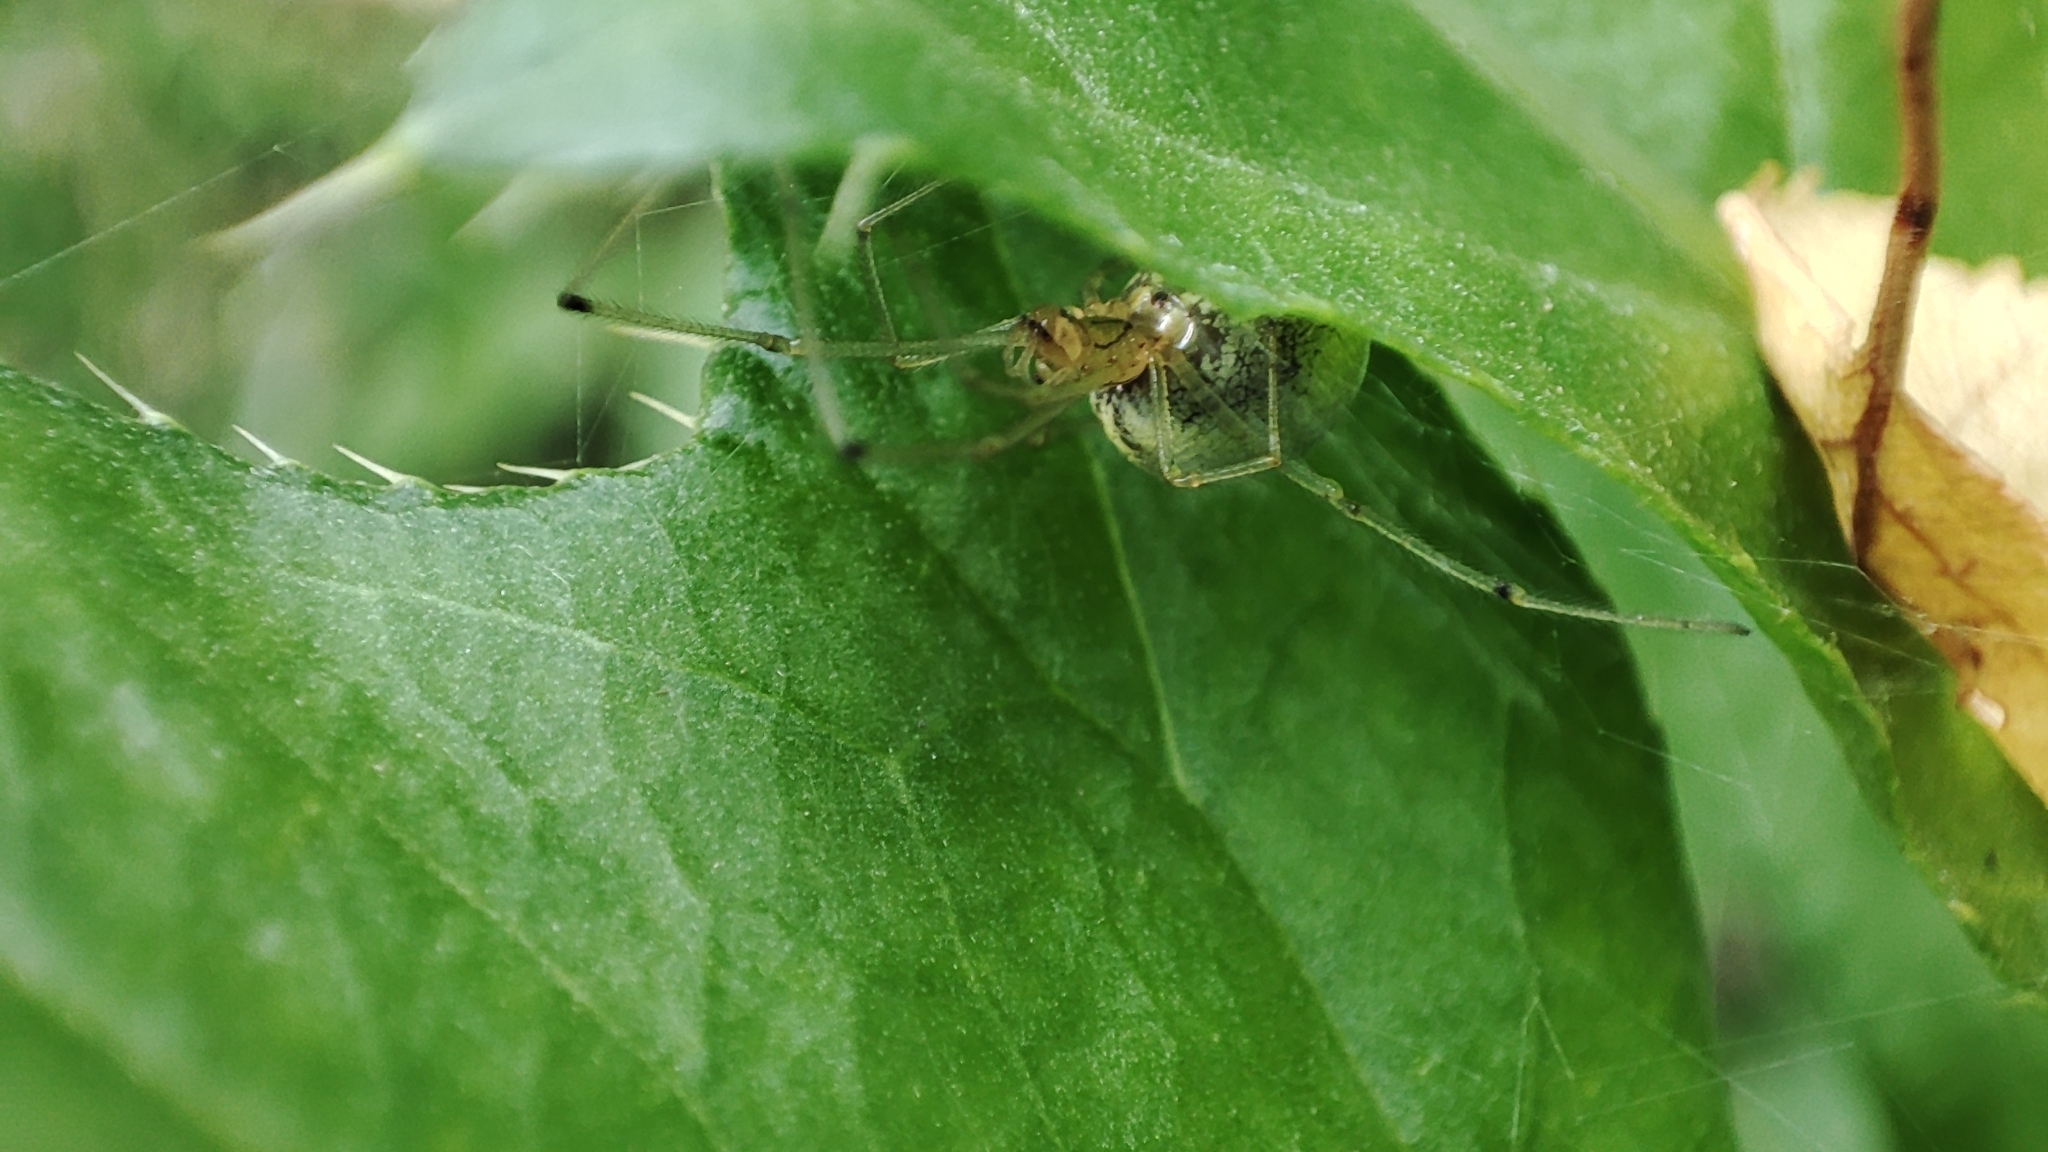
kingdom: Animalia
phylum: Arthropoda
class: Arachnida
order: Araneae
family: Theridiidae
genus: Enoplognatha
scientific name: Enoplognatha ovata
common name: Common candy-striped spider
